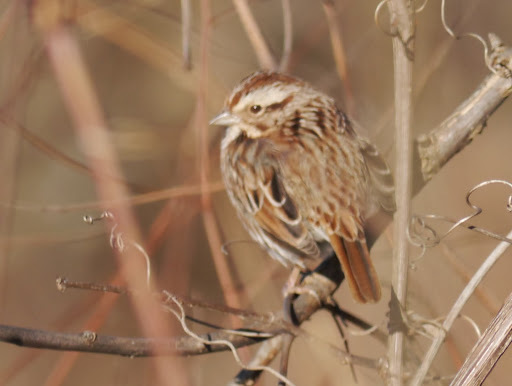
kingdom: Animalia
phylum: Chordata
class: Aves
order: Passeriformes
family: Passerellidae
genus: Melospiza
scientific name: Melospiza georgiana
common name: Swamp sparrow
